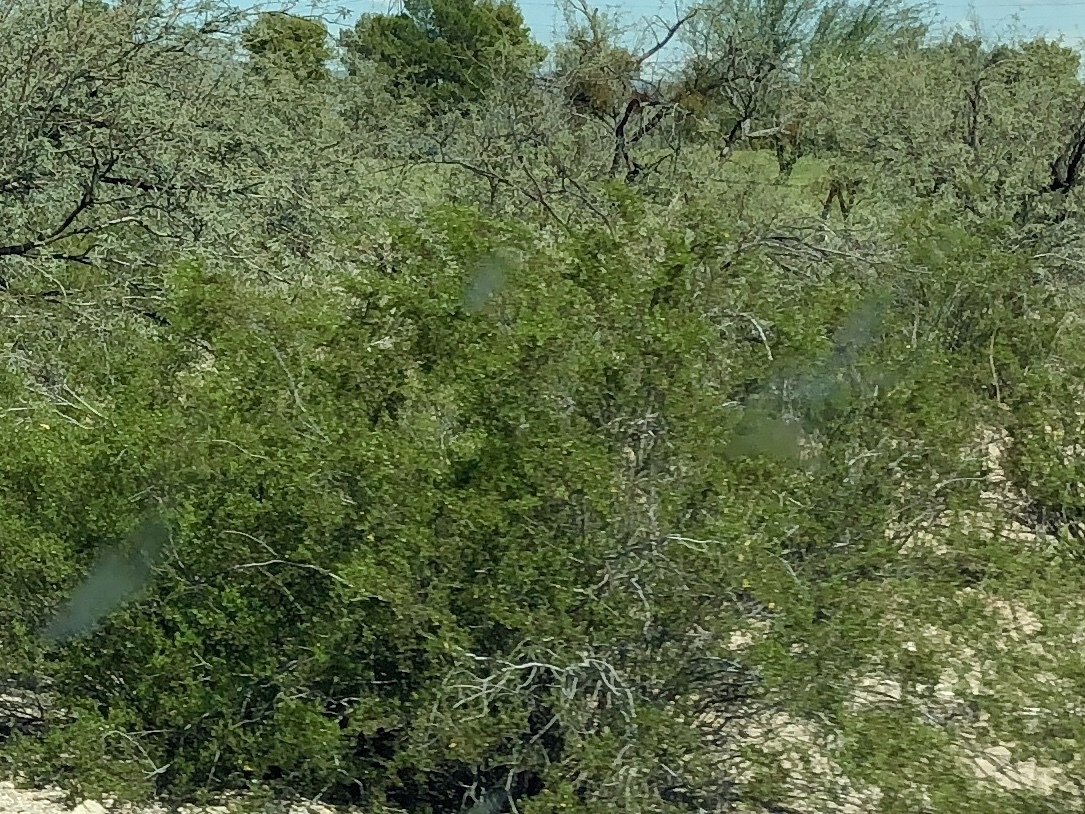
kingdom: Plantae
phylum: Tracheophyta
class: Magnoliopsida
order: Zygophyllales
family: Zygophyllaceae
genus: Larrea
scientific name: Larrea tridentata
